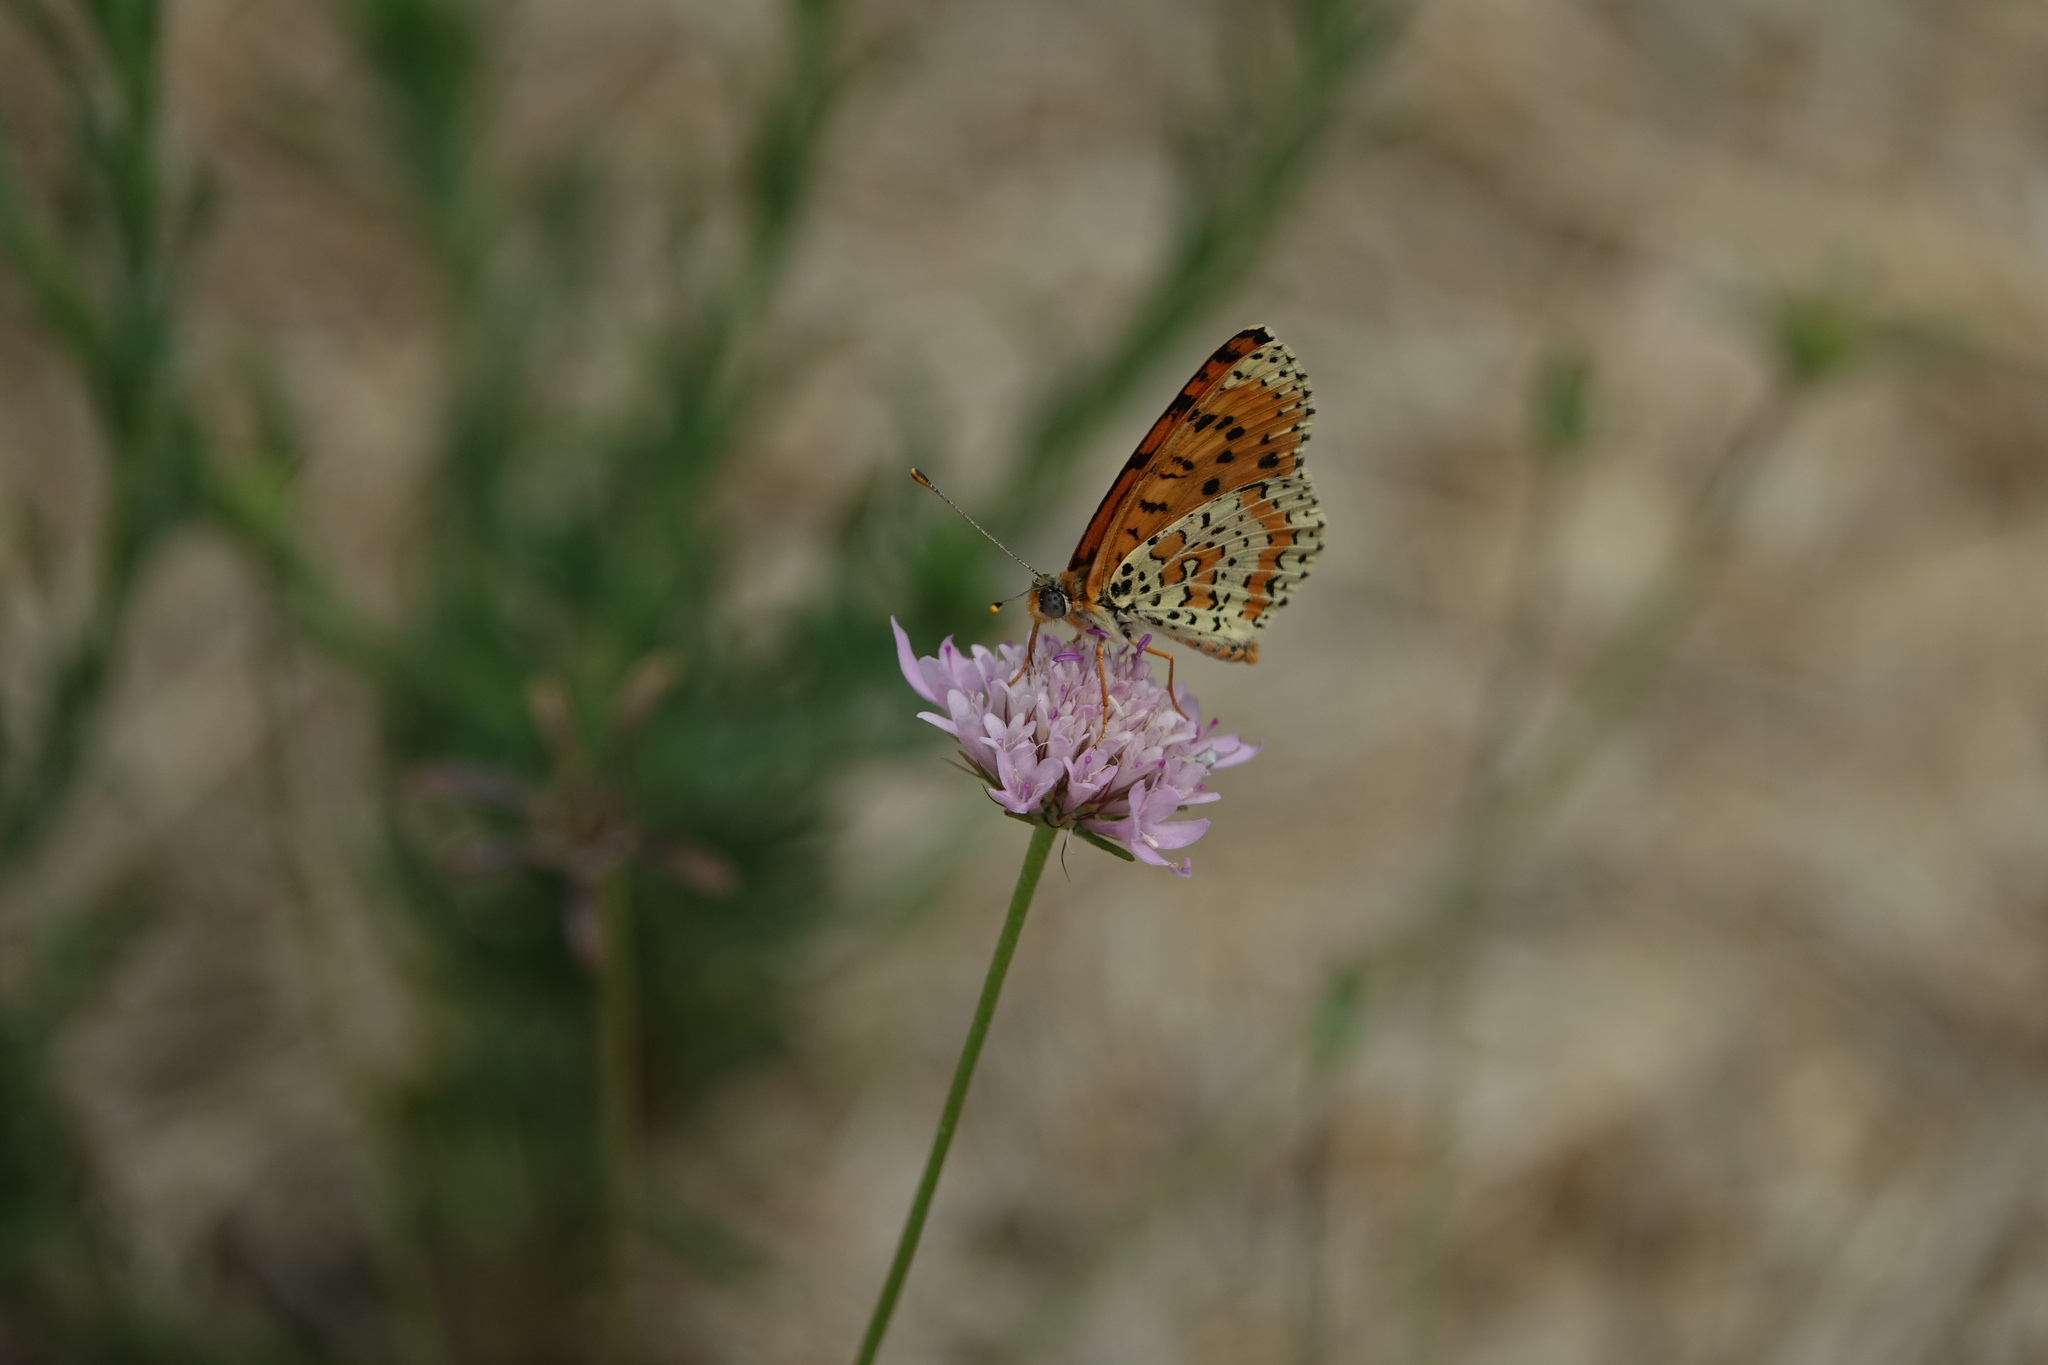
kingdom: Animalia
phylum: Arthropoda
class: Insecta
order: Lepidoptera
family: Nymphalidae
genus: Melitaea
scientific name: Melitaea didyma
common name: Spotted fritillary
